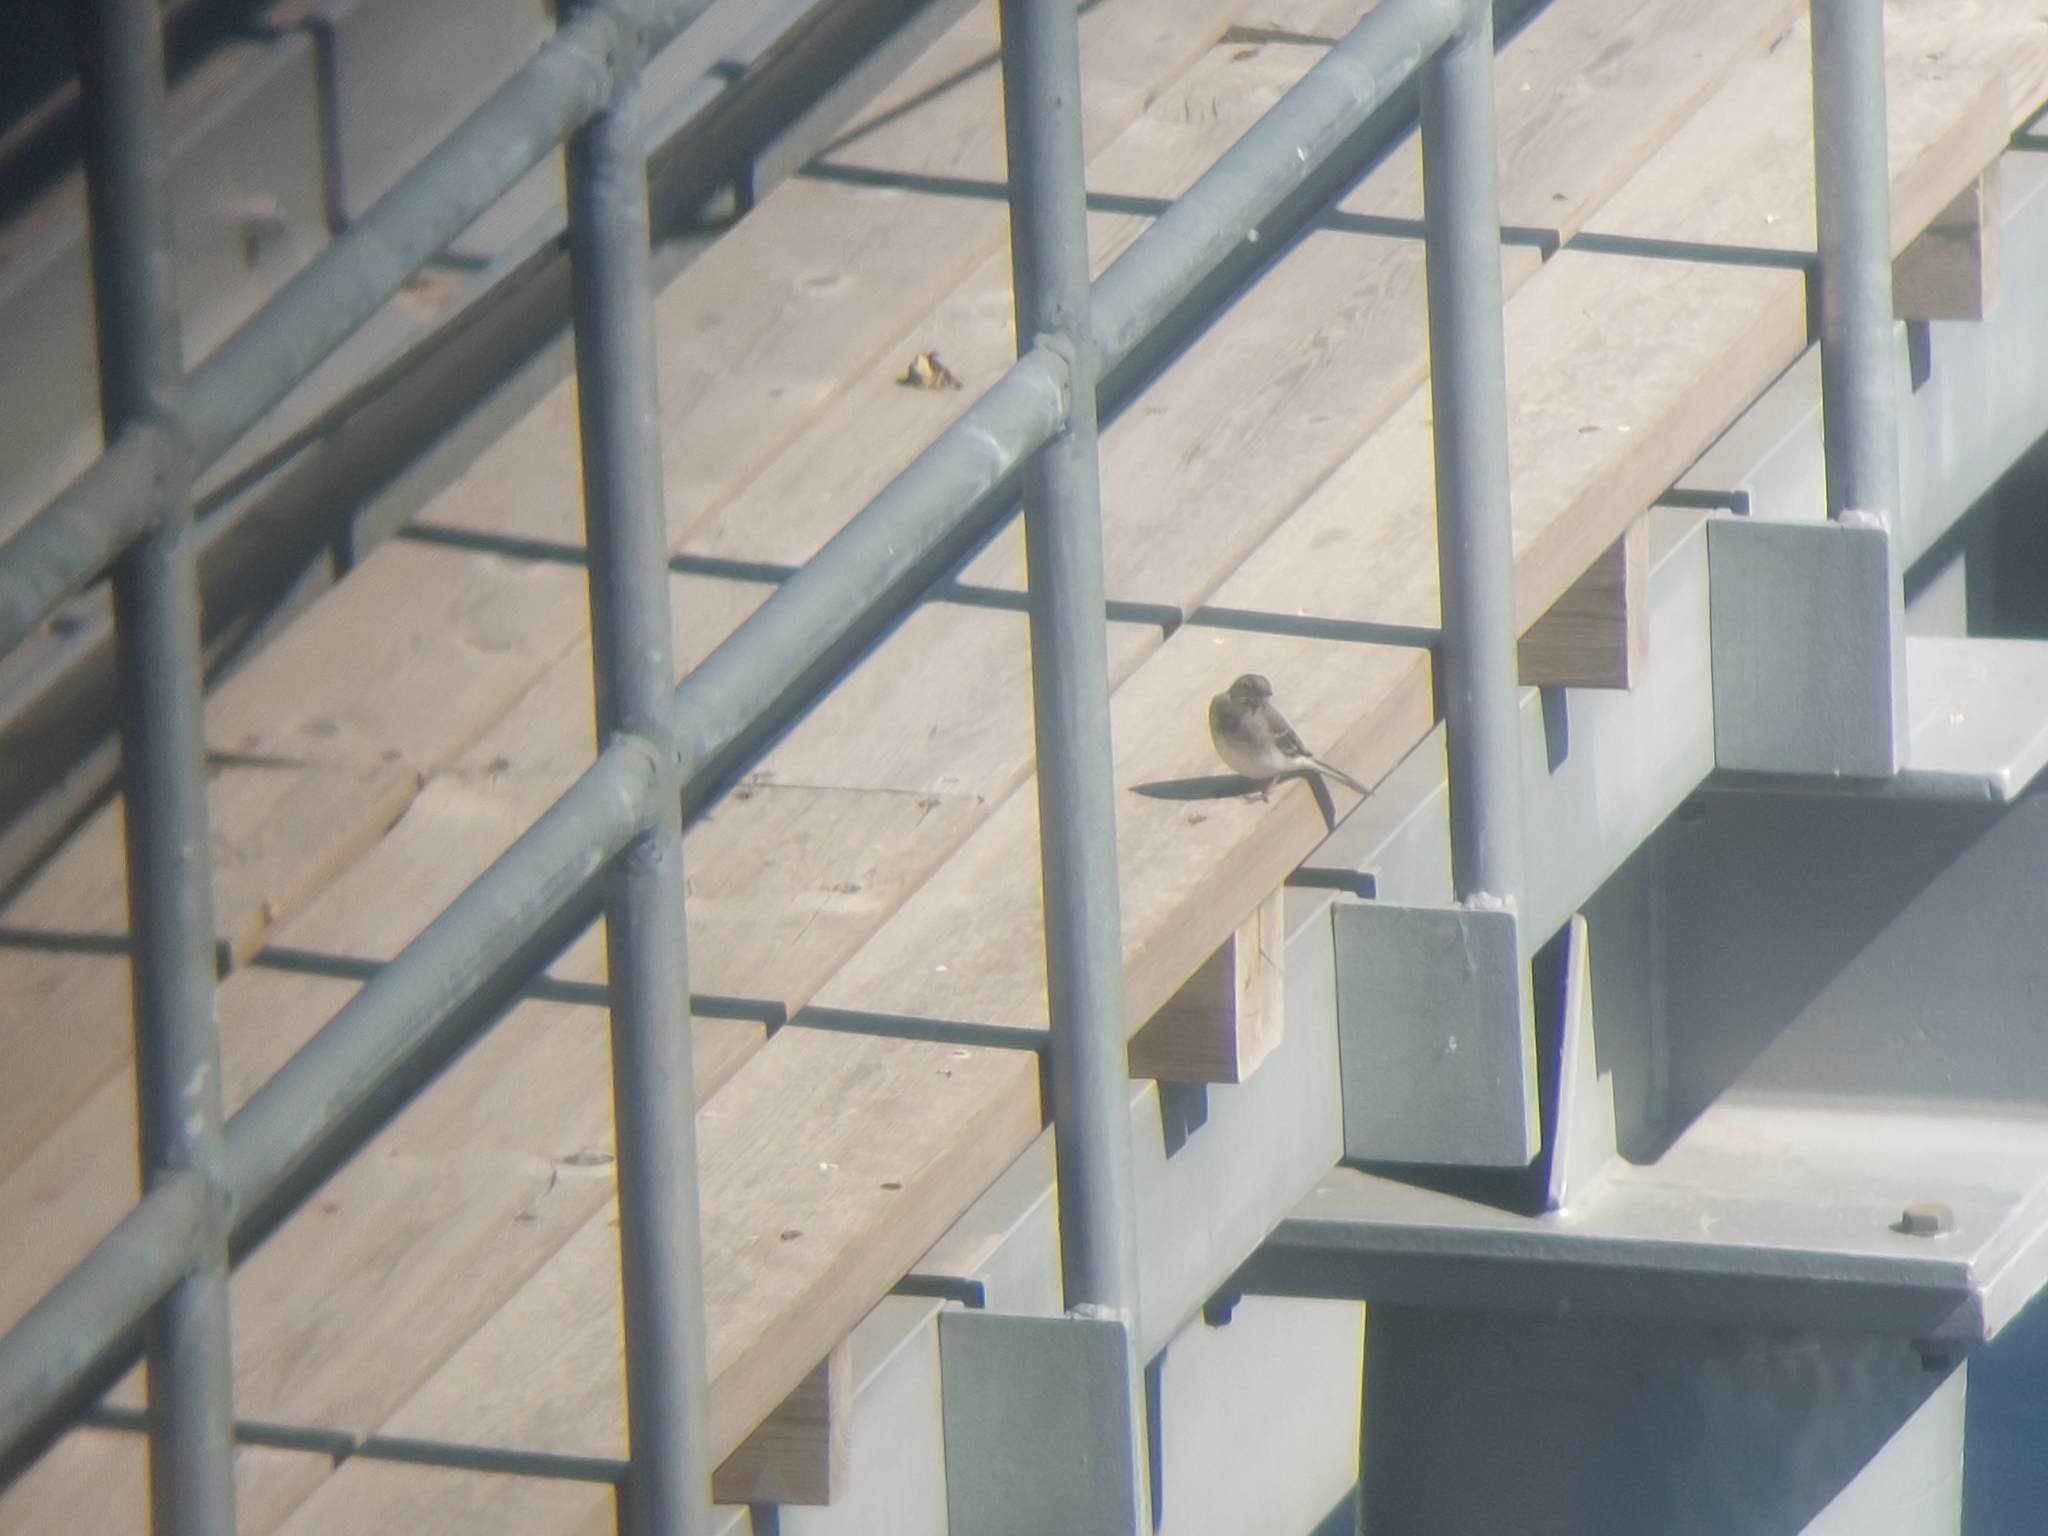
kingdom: Animalia
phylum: Chordata
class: Aves
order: Passeriformes
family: Motacillidae
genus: Motacilla
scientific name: Motacilla alba
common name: White wagtail
